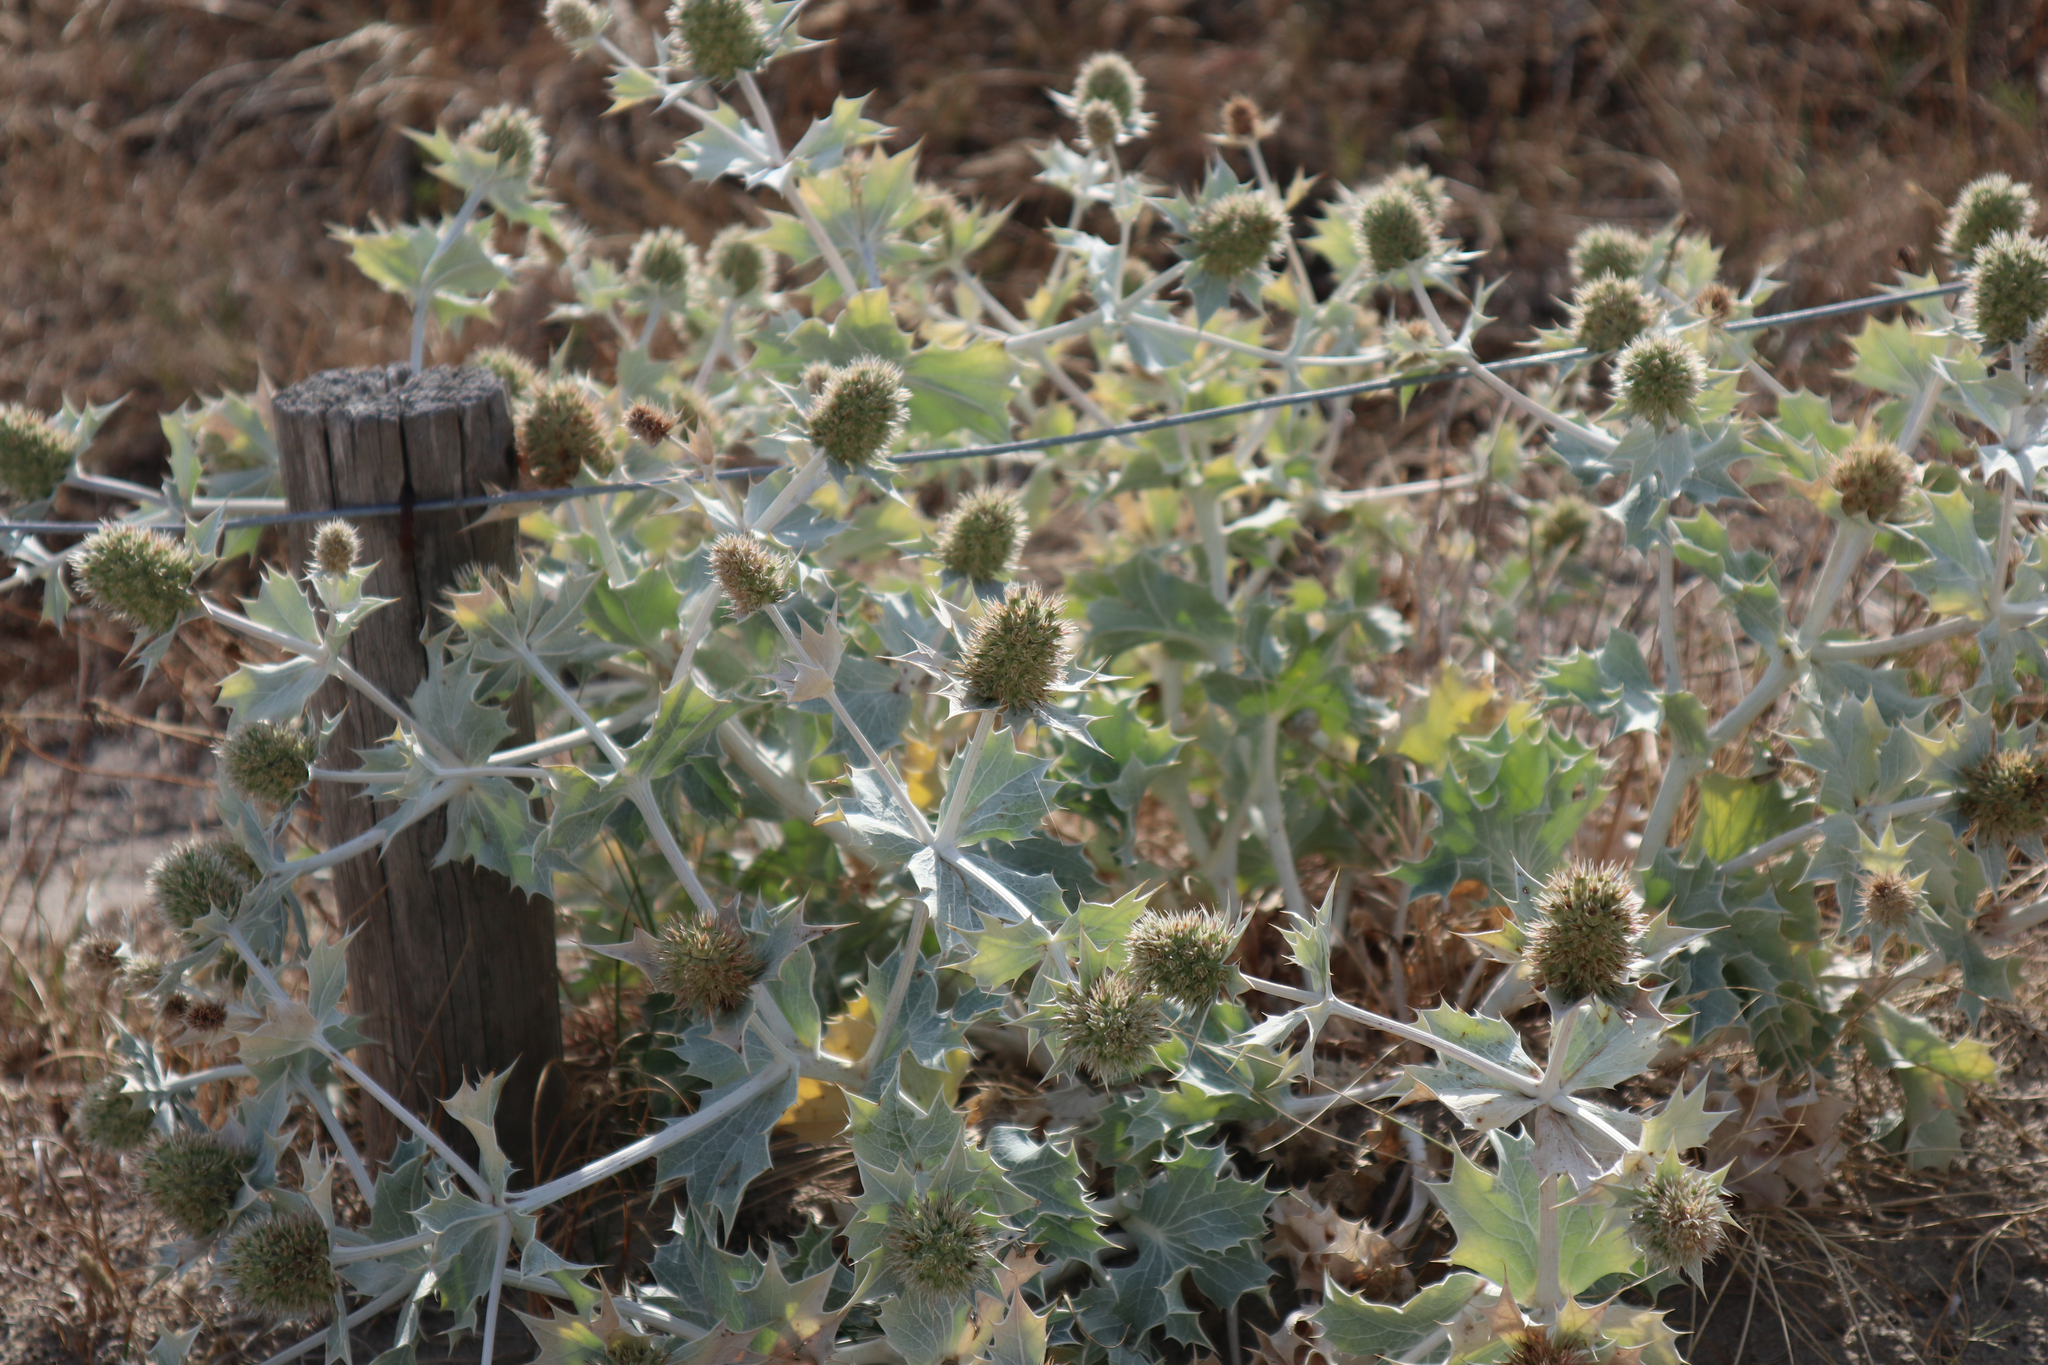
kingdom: Plantae
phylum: Tracheophyta
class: Magnoliopsida
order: Apiales
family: Apiaceae
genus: Eryngium
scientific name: Eryngium maritimum
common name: Sea-holly
